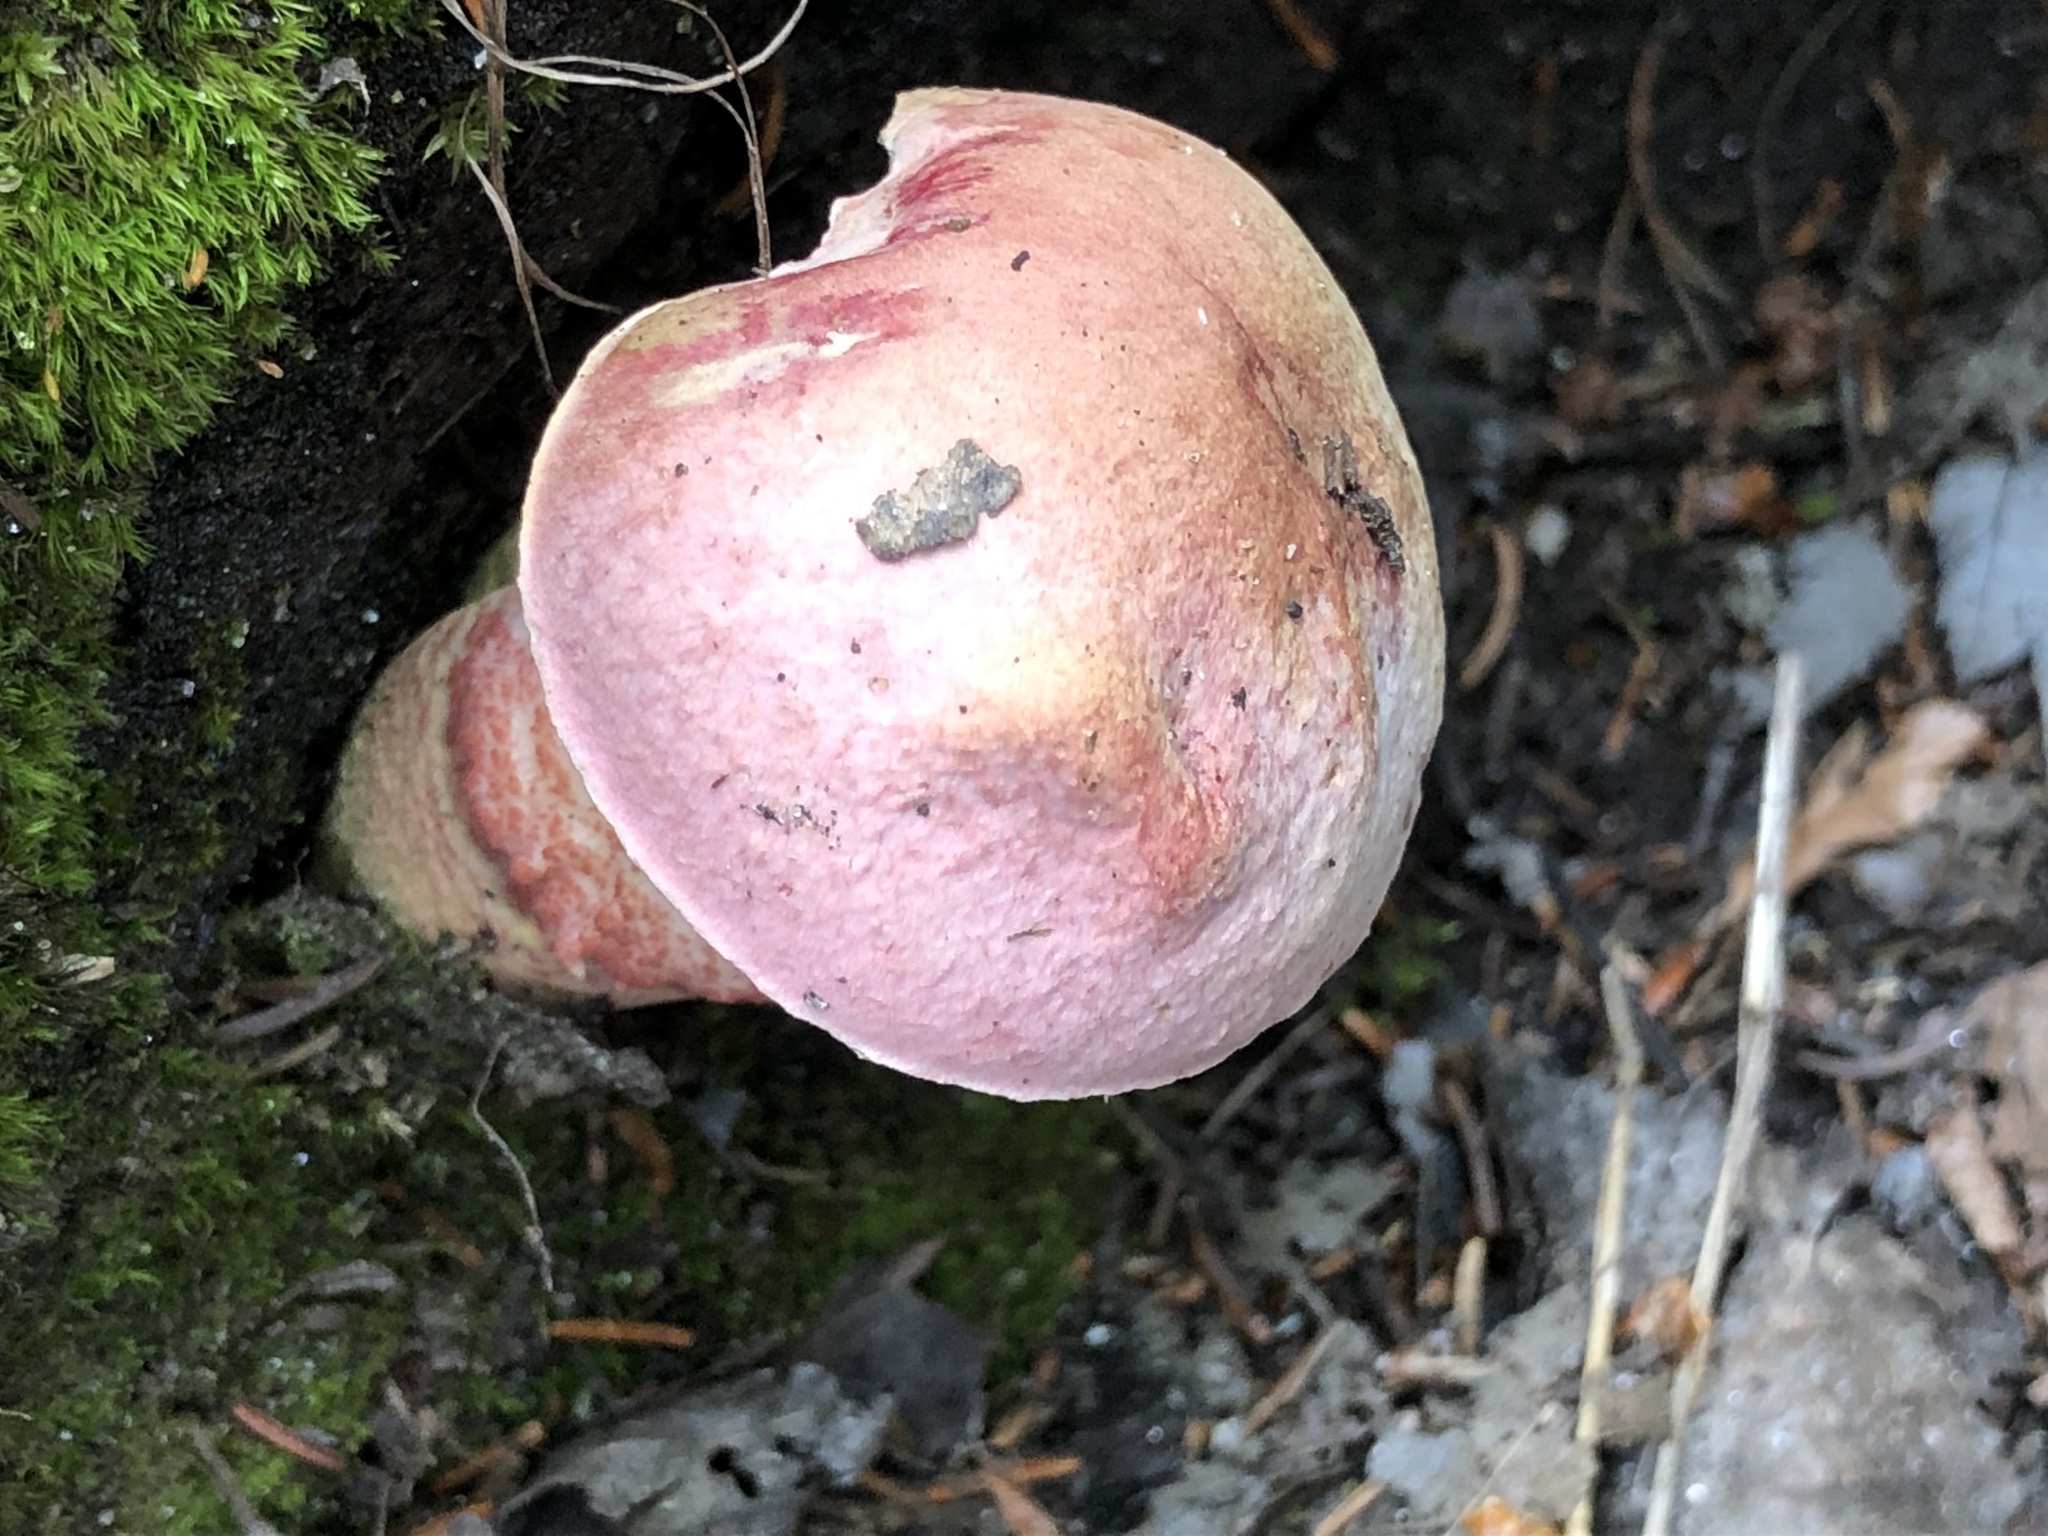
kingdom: Fungi
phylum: Basidiomycota
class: Agaricomycetes
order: Boletales
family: Boletaceae
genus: Harrya
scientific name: Harrya chromipes
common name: Chrome-footed bolete
